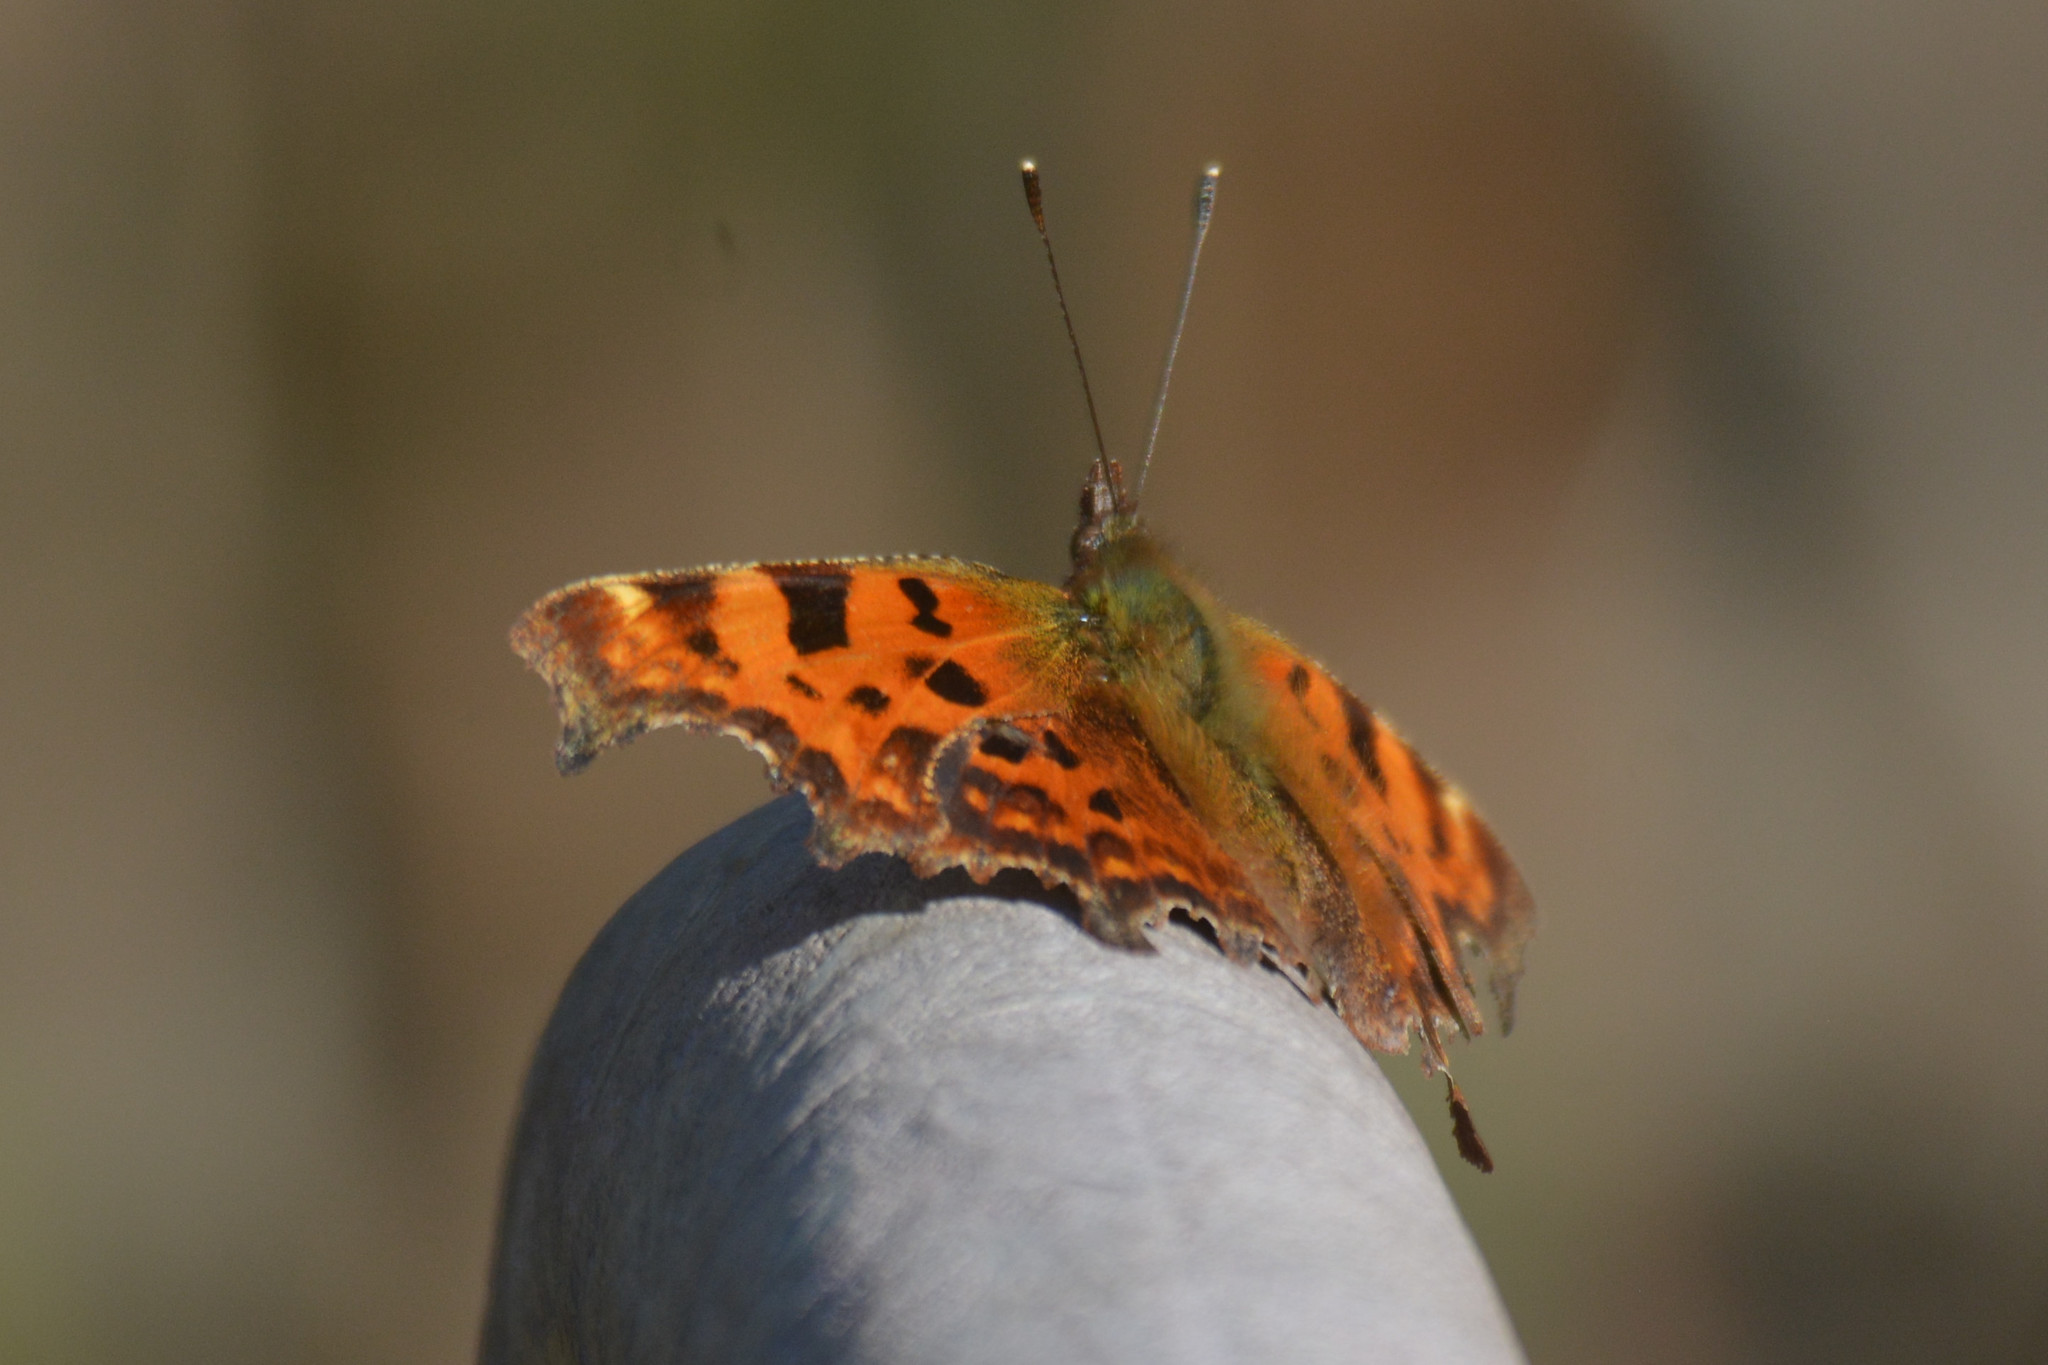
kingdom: Animalia
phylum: Arthropoda
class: Insecta
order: Lepidoptera
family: Nymphalidae
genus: Polygonia
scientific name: Polygonia c-album
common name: Comma
